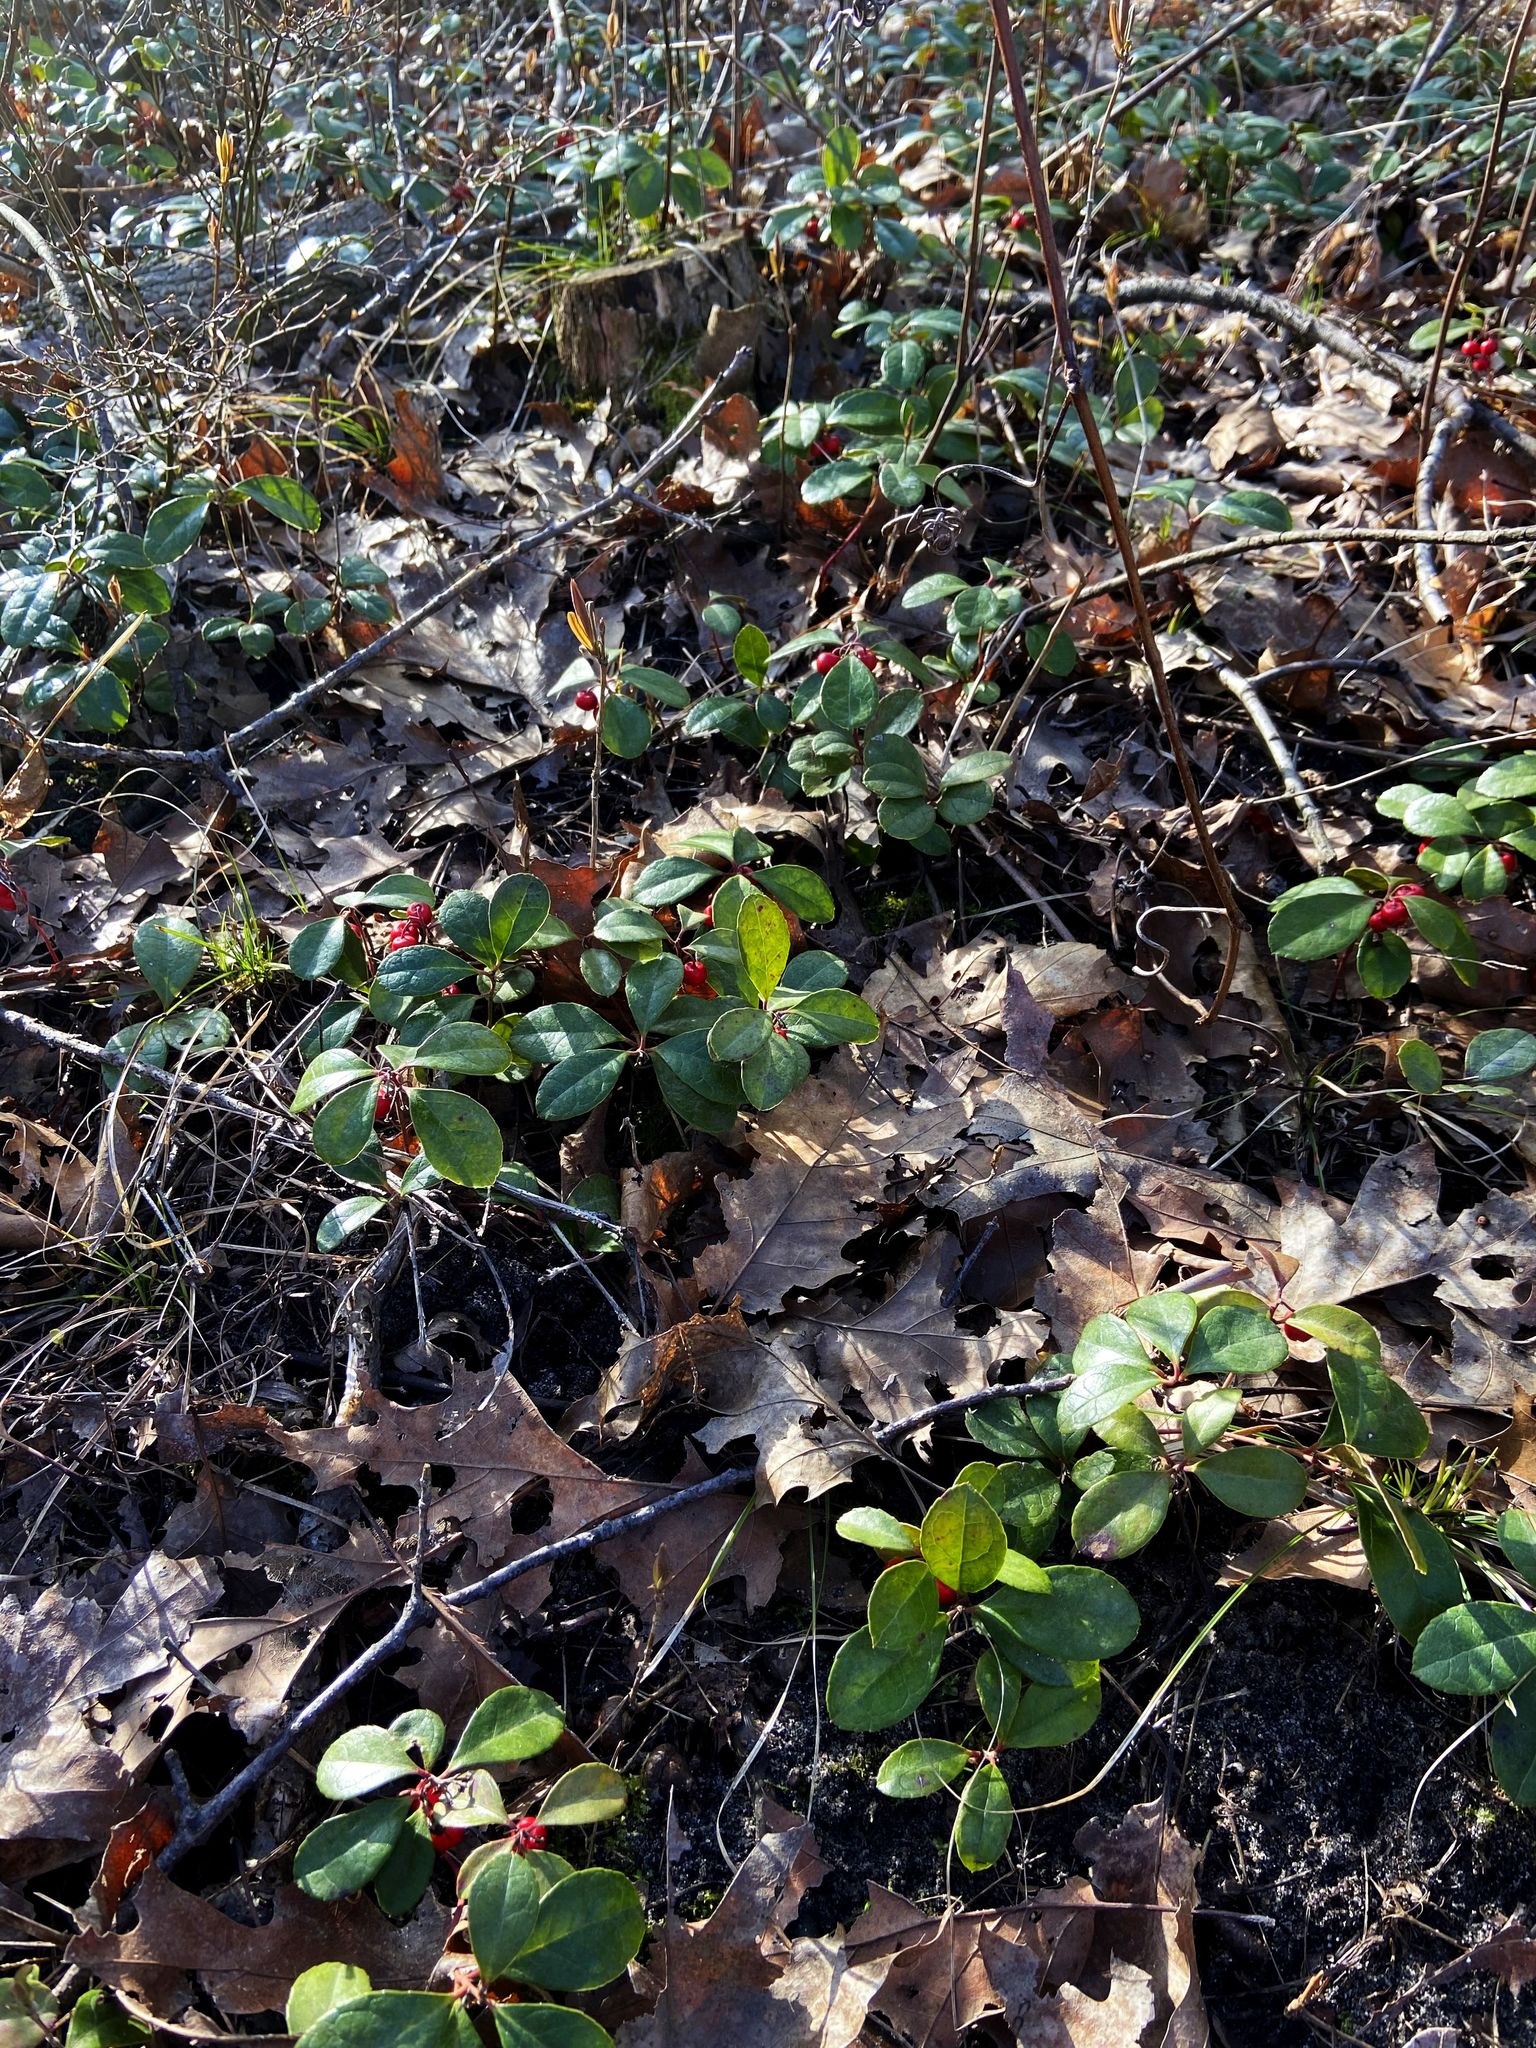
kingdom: Plantae
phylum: Tracheophyta
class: Magnoliopsida
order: Ericales
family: Ericaceae
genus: Gaultheria
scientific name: Gaultheria procumbens
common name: Checkerberry
